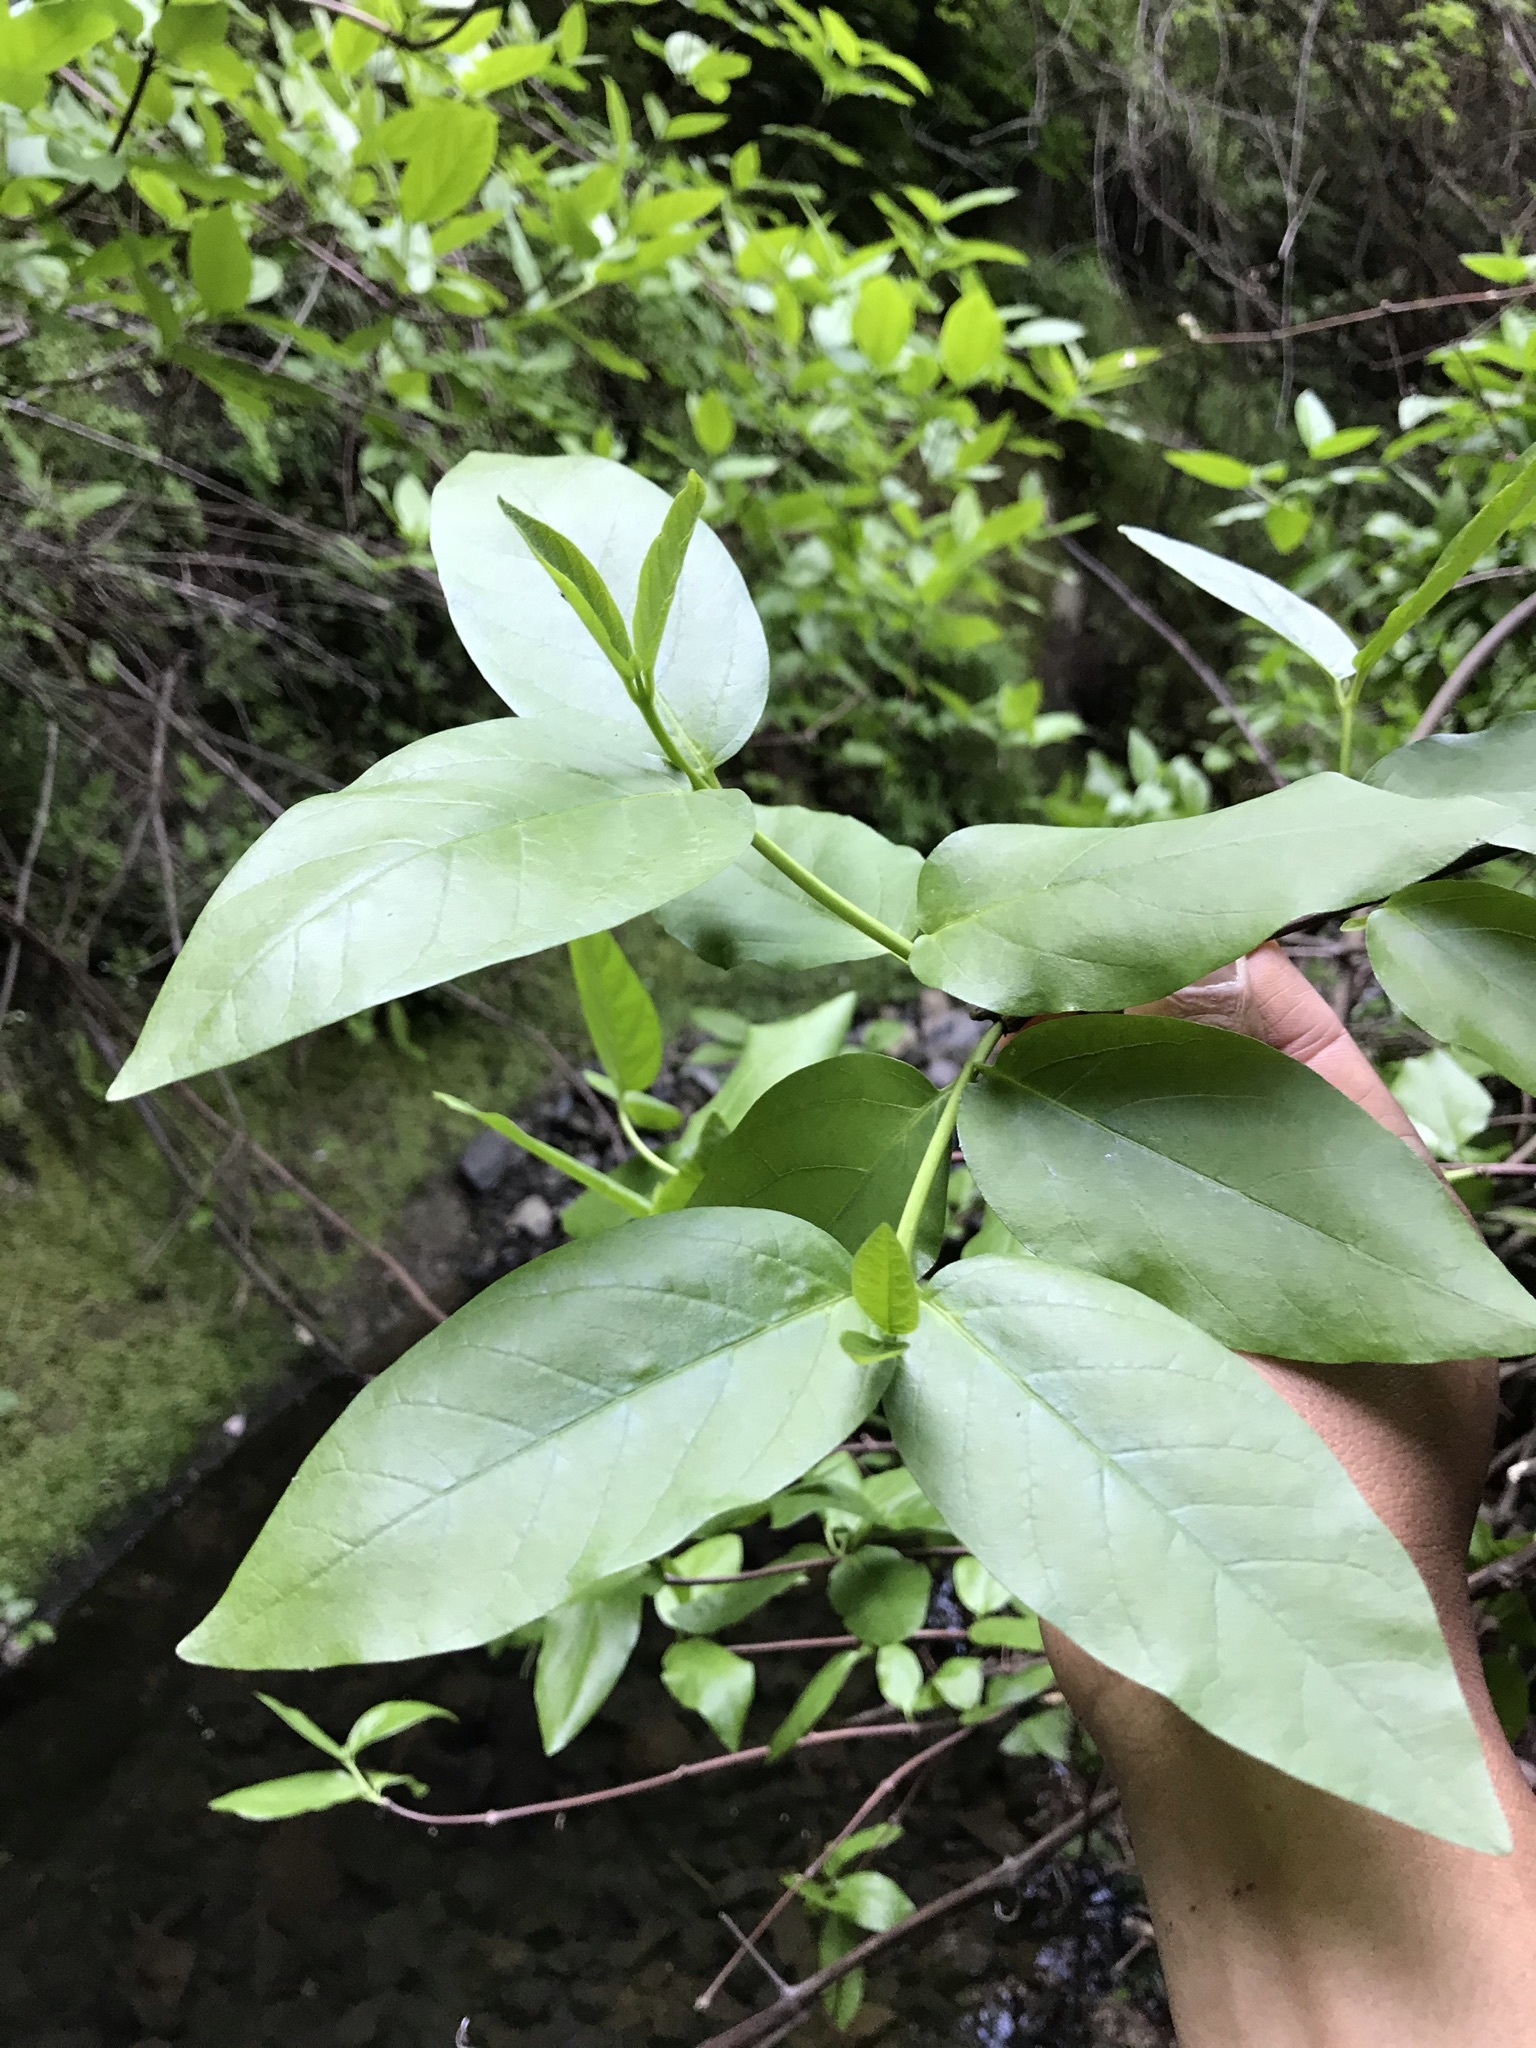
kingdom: Plantae
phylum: Tracheophyta
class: Magnoliopsida
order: Laurales
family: Calycanthaceae
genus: Calycanthus
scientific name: Calycanthus occidentalis
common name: California spicebush
